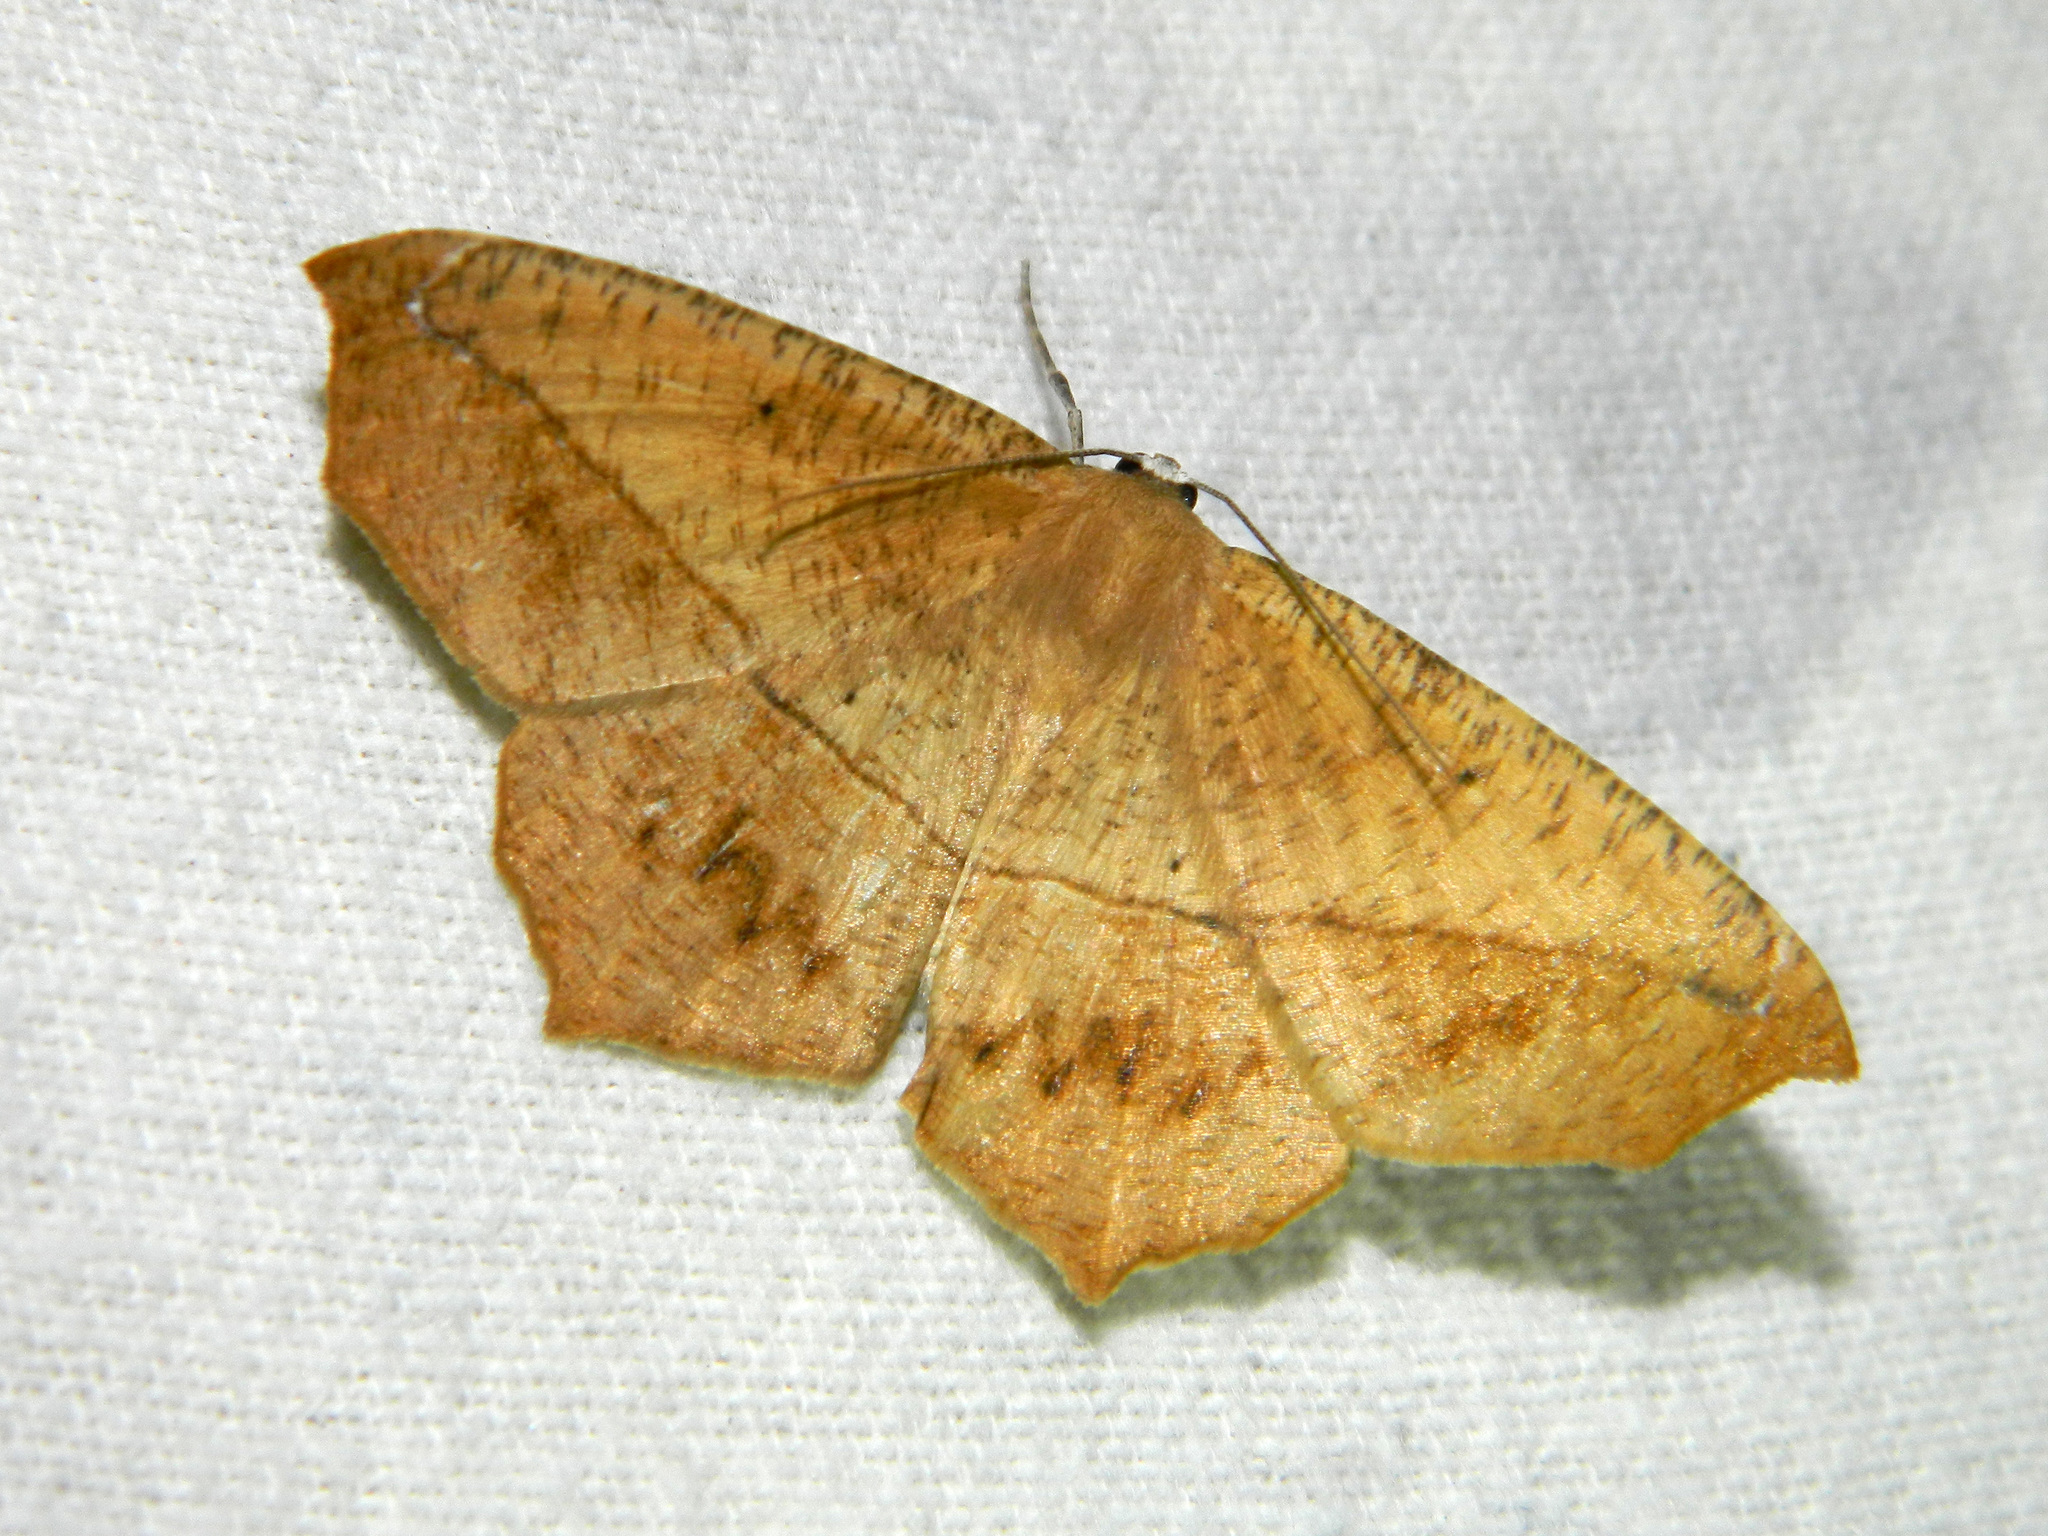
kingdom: Animalia
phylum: Arthropoda
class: Insecta
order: Lepidoptera
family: Geometridae
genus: Prochoerodes
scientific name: Prochoerodes lineola
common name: Large maple spanworm
